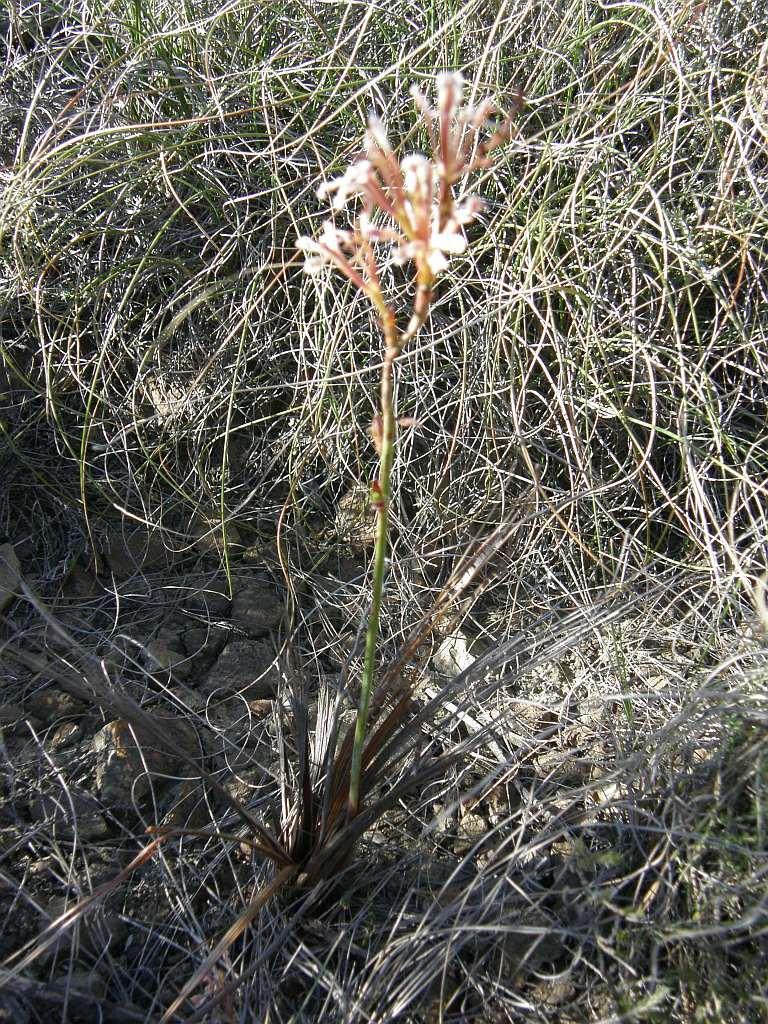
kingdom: Plantae
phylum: Tracheophyta
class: Liliopsida
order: Asparagales
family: Iridaceae
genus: Tritoniopsis
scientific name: Tritoniopsis elongata
